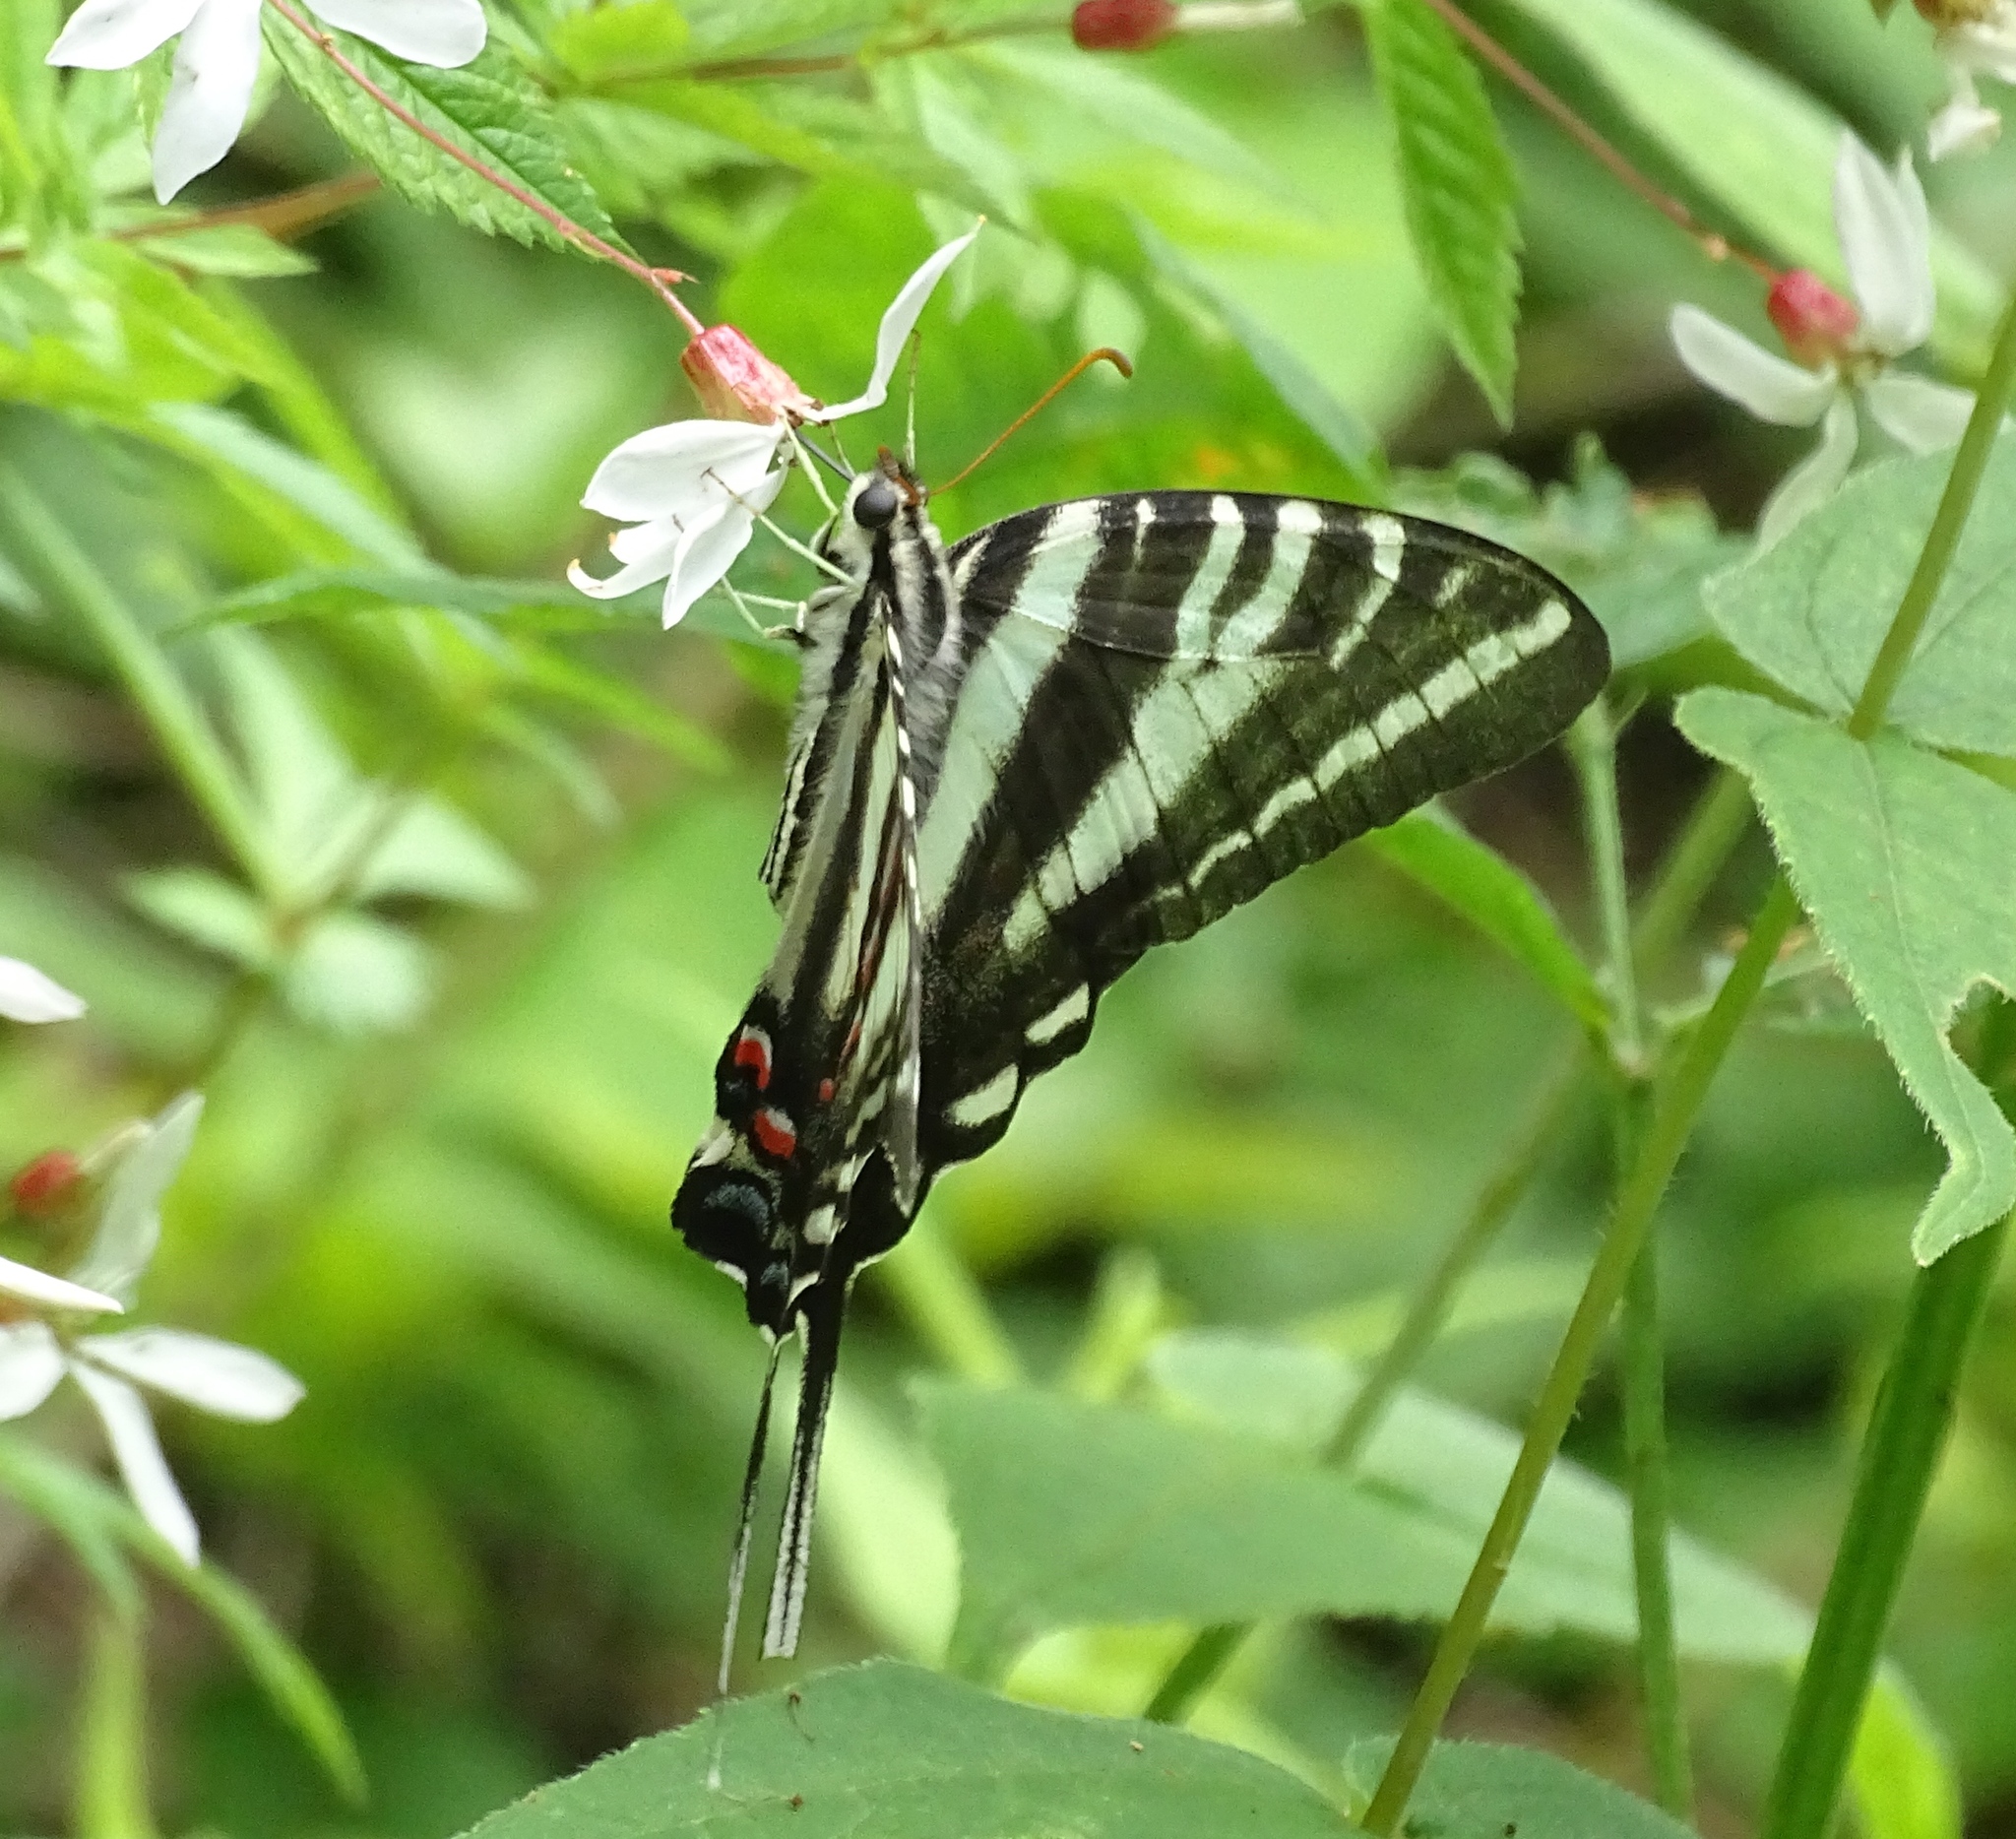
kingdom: Animalia
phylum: Arthropoda
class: Insecta
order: Lepidoptera
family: Papilionidae
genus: Protographium
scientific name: Protographium marcellus
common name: Zebra swallowtail
